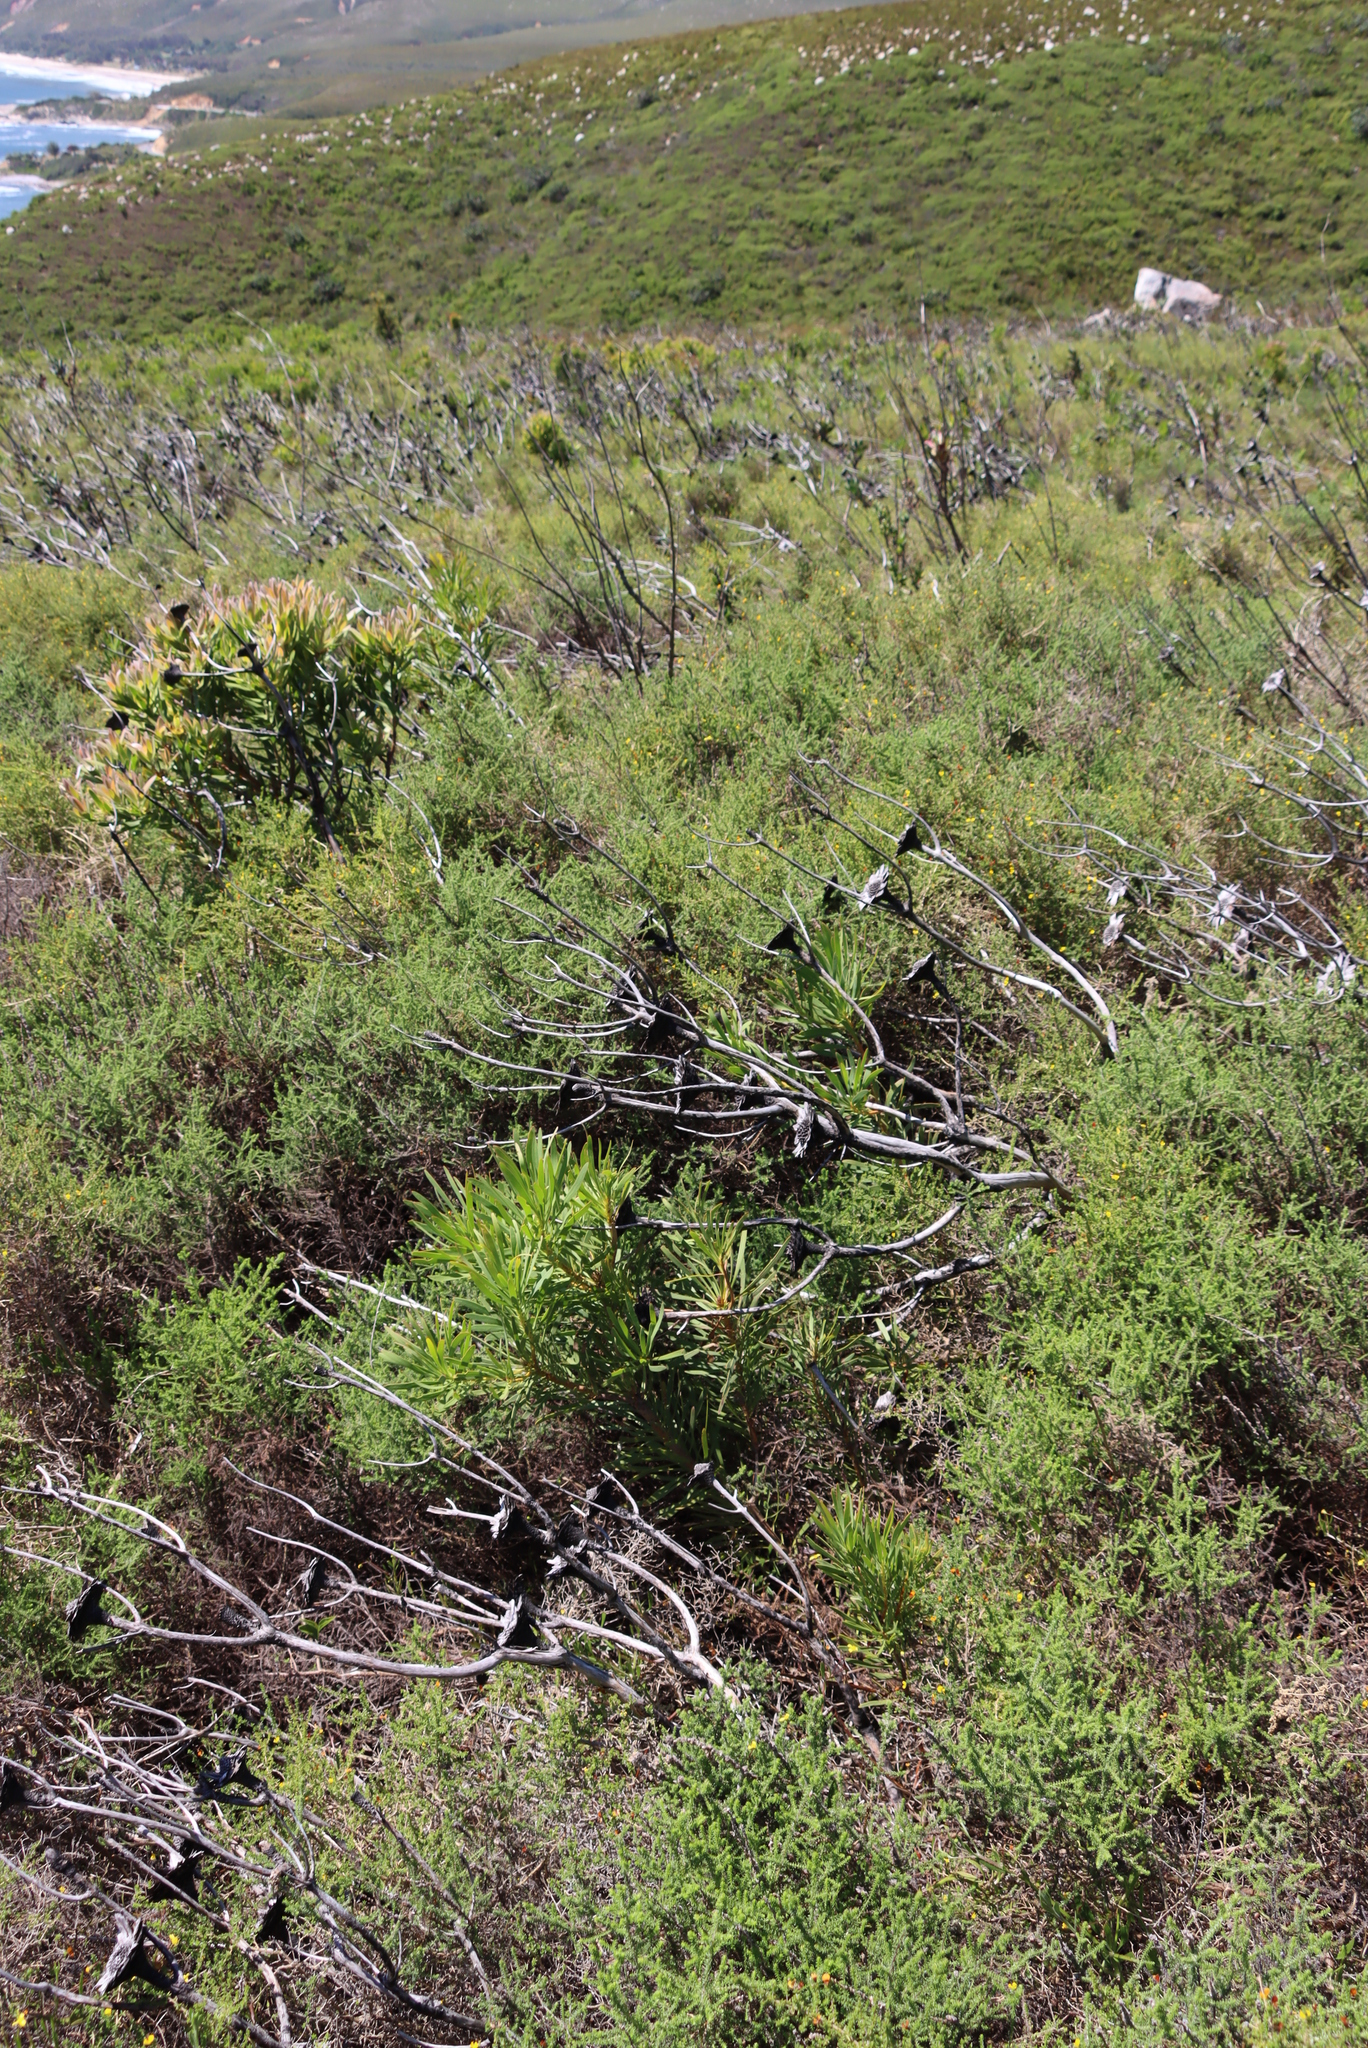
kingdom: Plantae
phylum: Tracheophyta
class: Magnoliopsida
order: Proteales
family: Proteaceae
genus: Protea
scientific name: Protea repens
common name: Sugarbush
